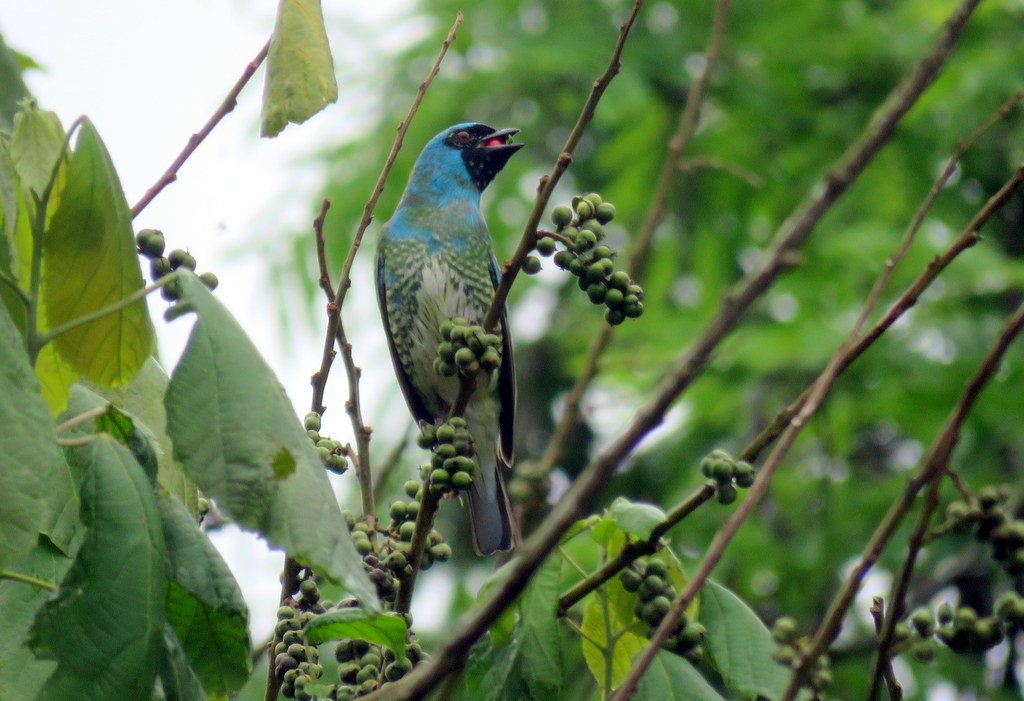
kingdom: Animalia
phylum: Chordata
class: Aves
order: Passeriformes
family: Thraupidae
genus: Tersina
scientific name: Tersina viridis
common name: Swallow tanager
